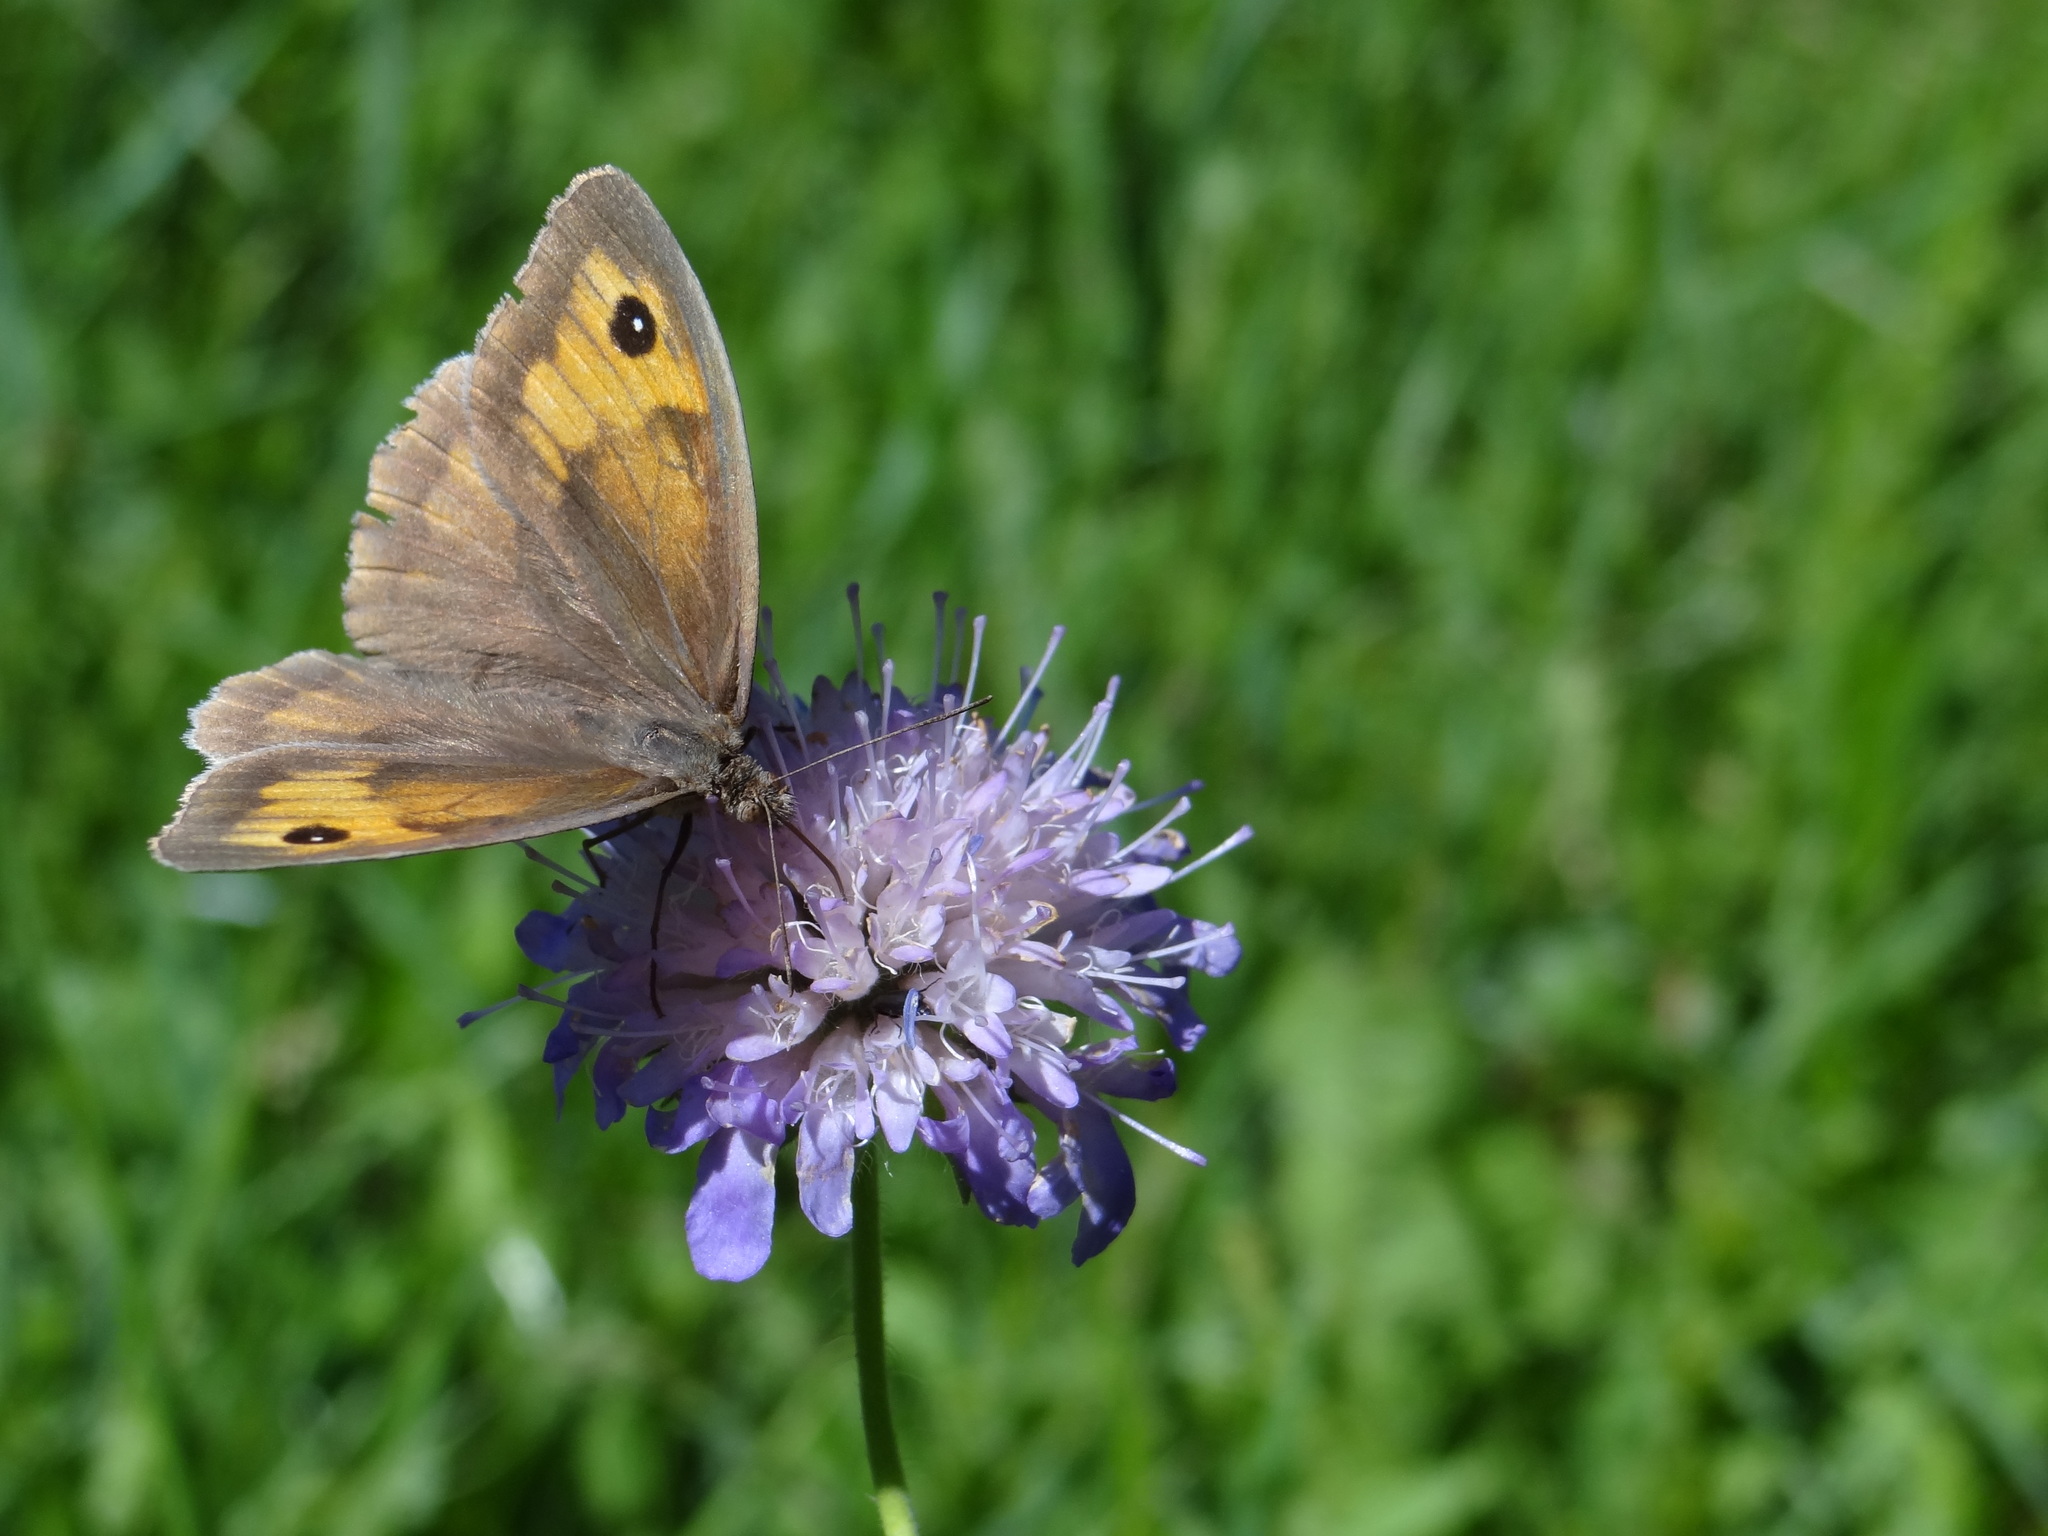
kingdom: Animalia
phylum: Arthropoda
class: Insecta
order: Lepidoptera
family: Nymphalidae
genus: Maniola
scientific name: Maniola jurtina
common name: Meadow brown
